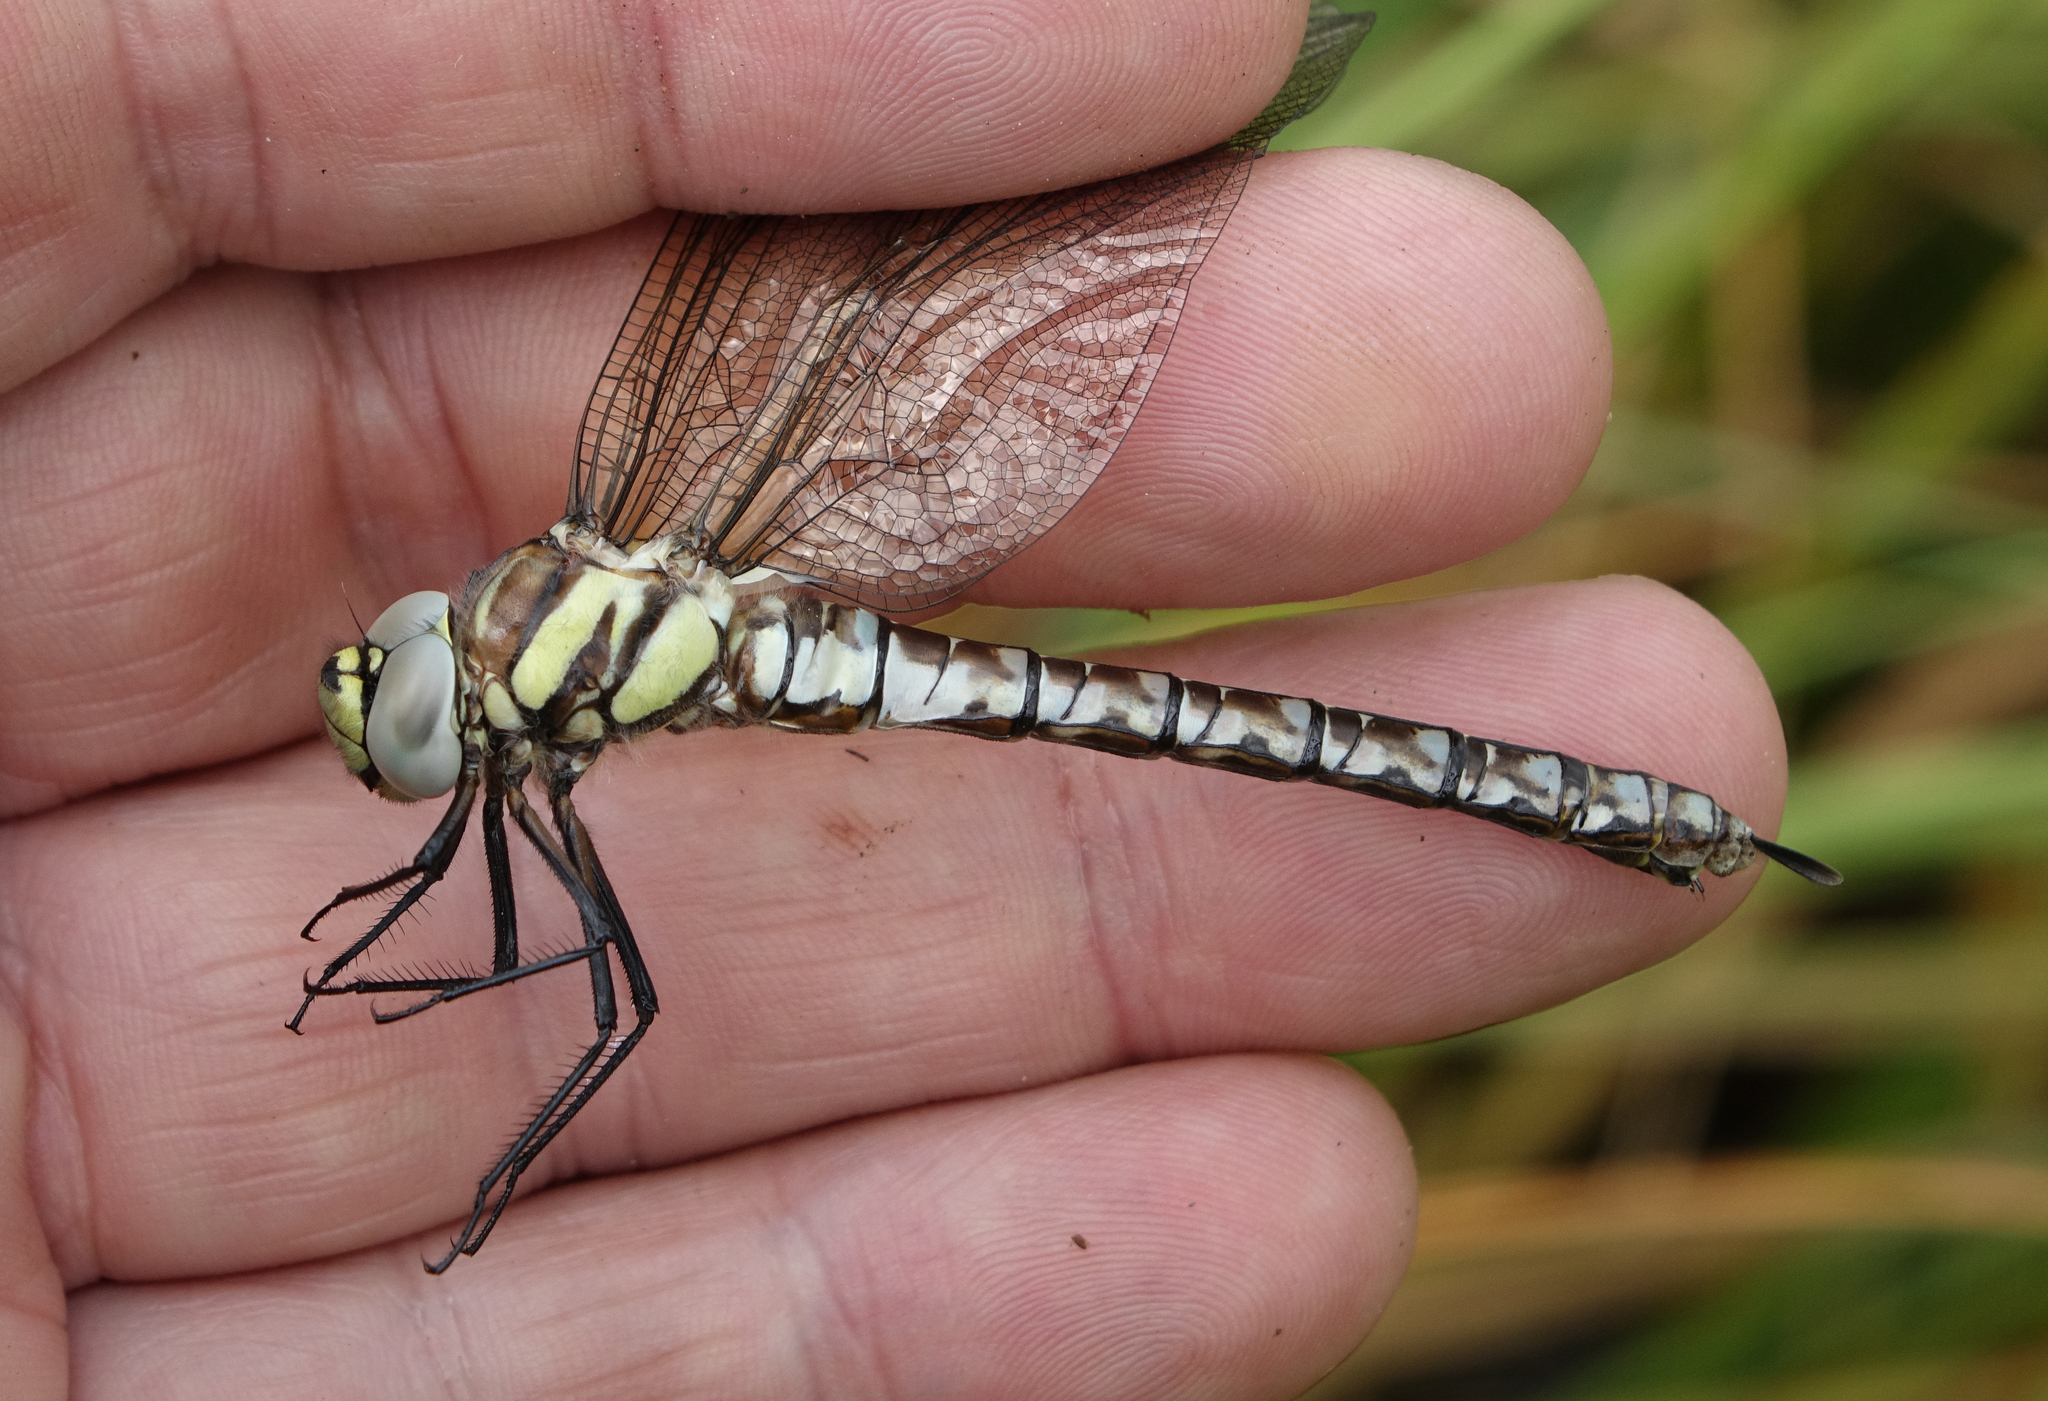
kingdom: Animalia
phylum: Arthropoda
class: Insecta
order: Odonata
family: Aeshnidae
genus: Aeshna
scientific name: Aeshna juncea
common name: Moorland hawker
